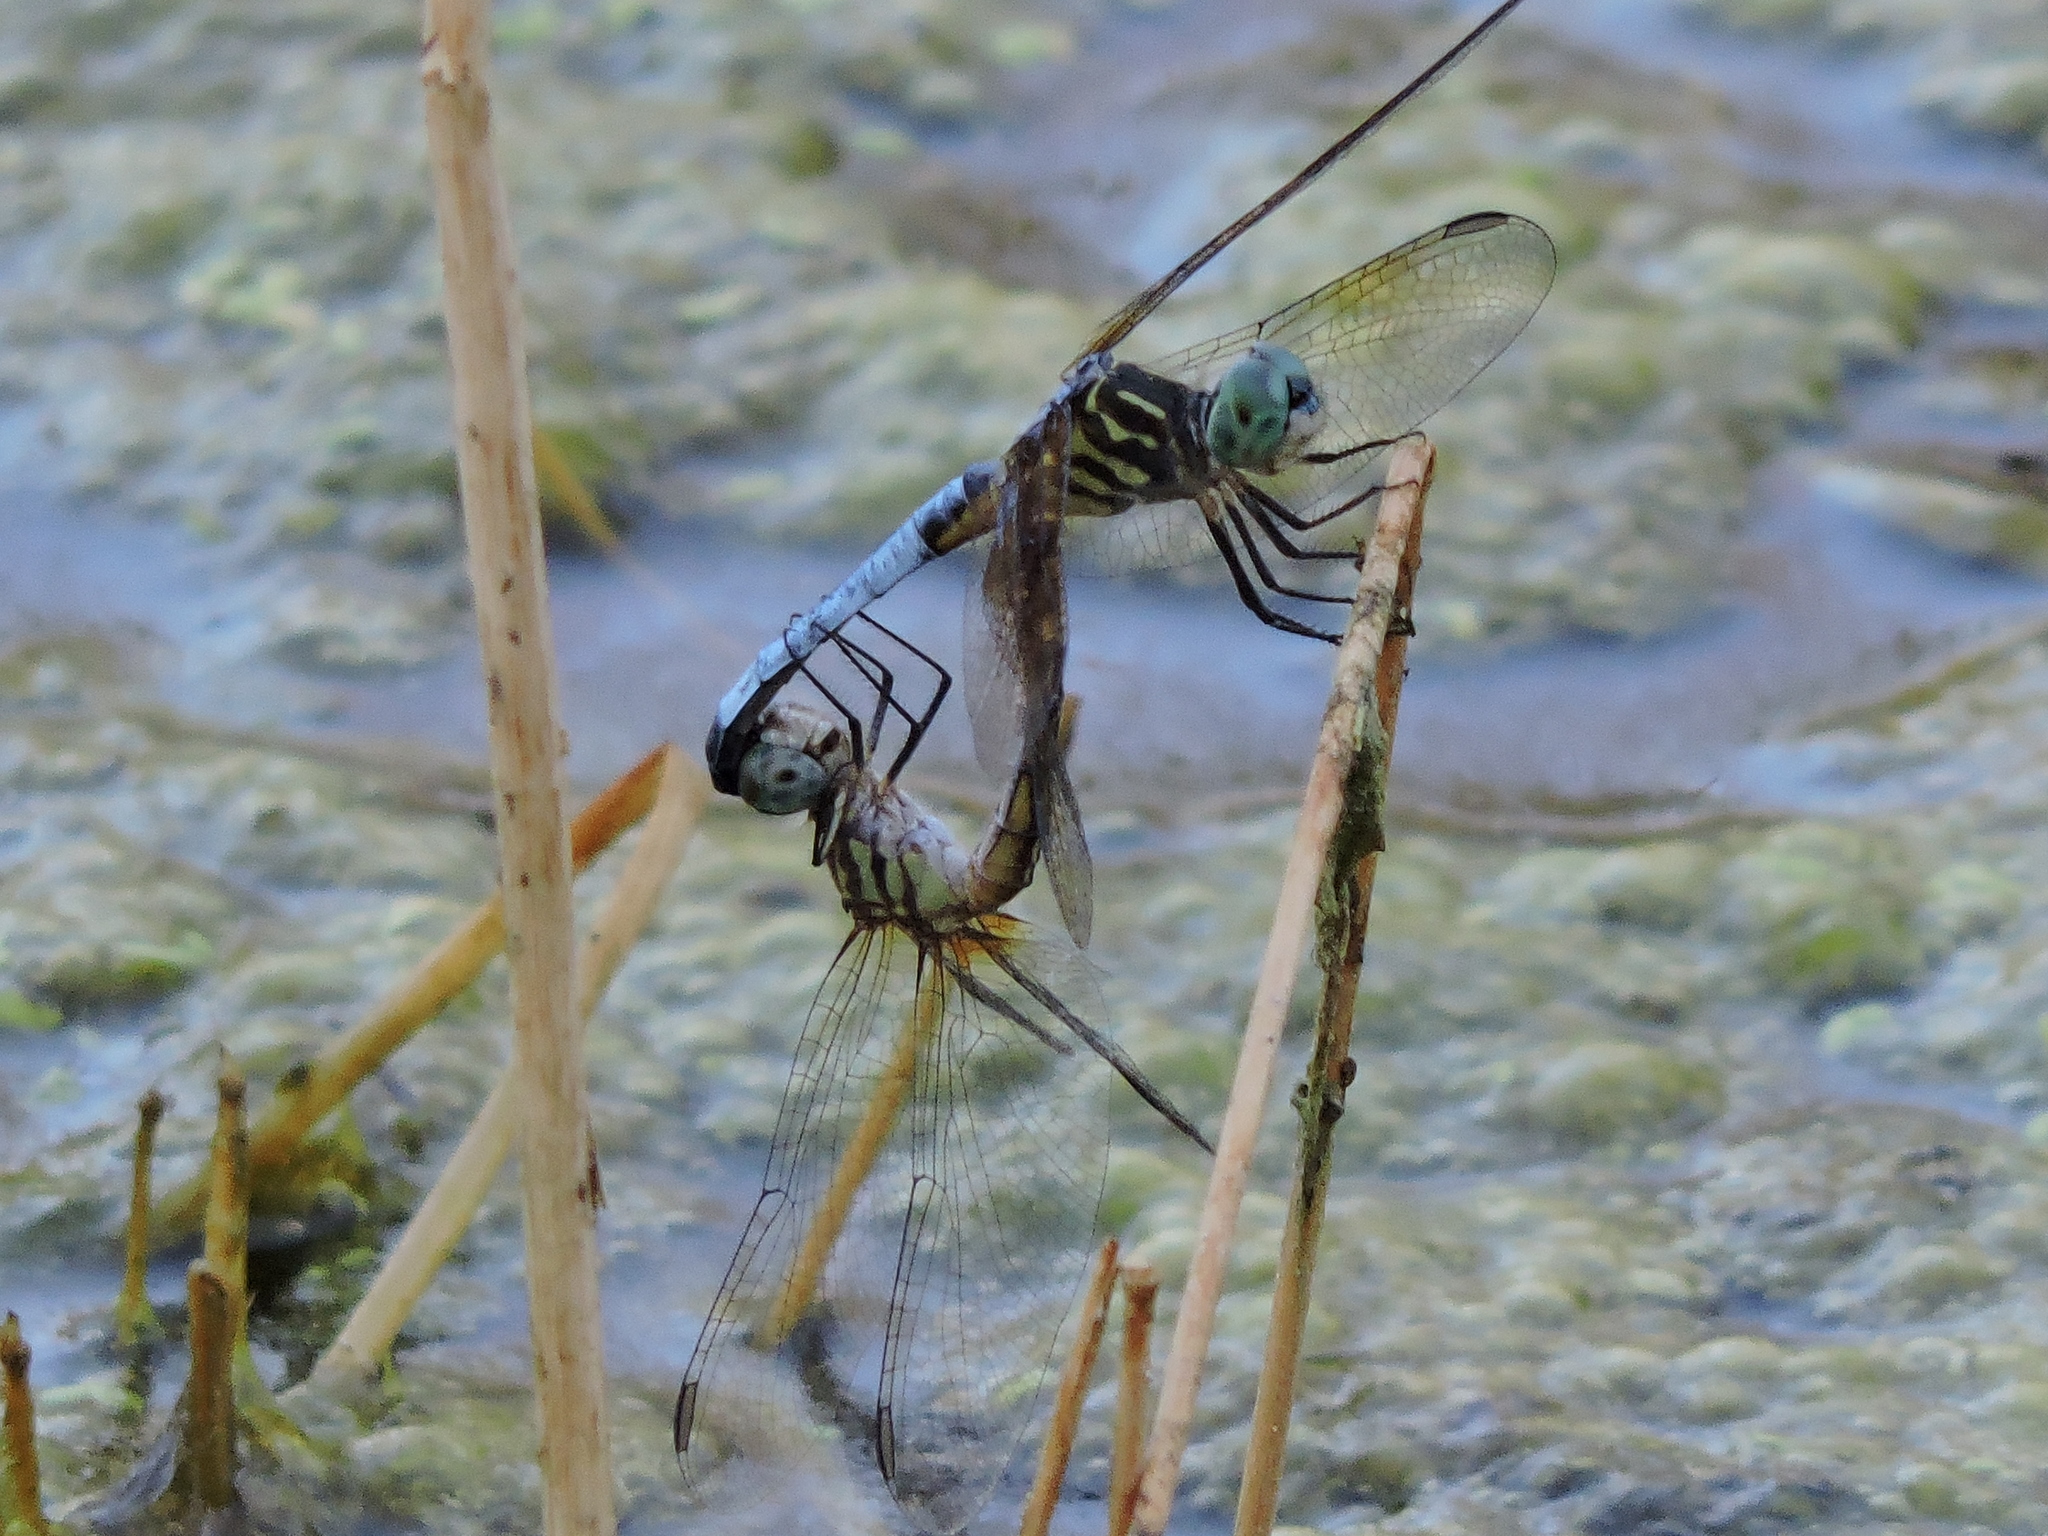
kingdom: Animalia
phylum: Arthropoda
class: Insecta
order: Odonata
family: Libellulidae
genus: Pachydiplax
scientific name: Pachydiplax longipennis
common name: Blue dasher
